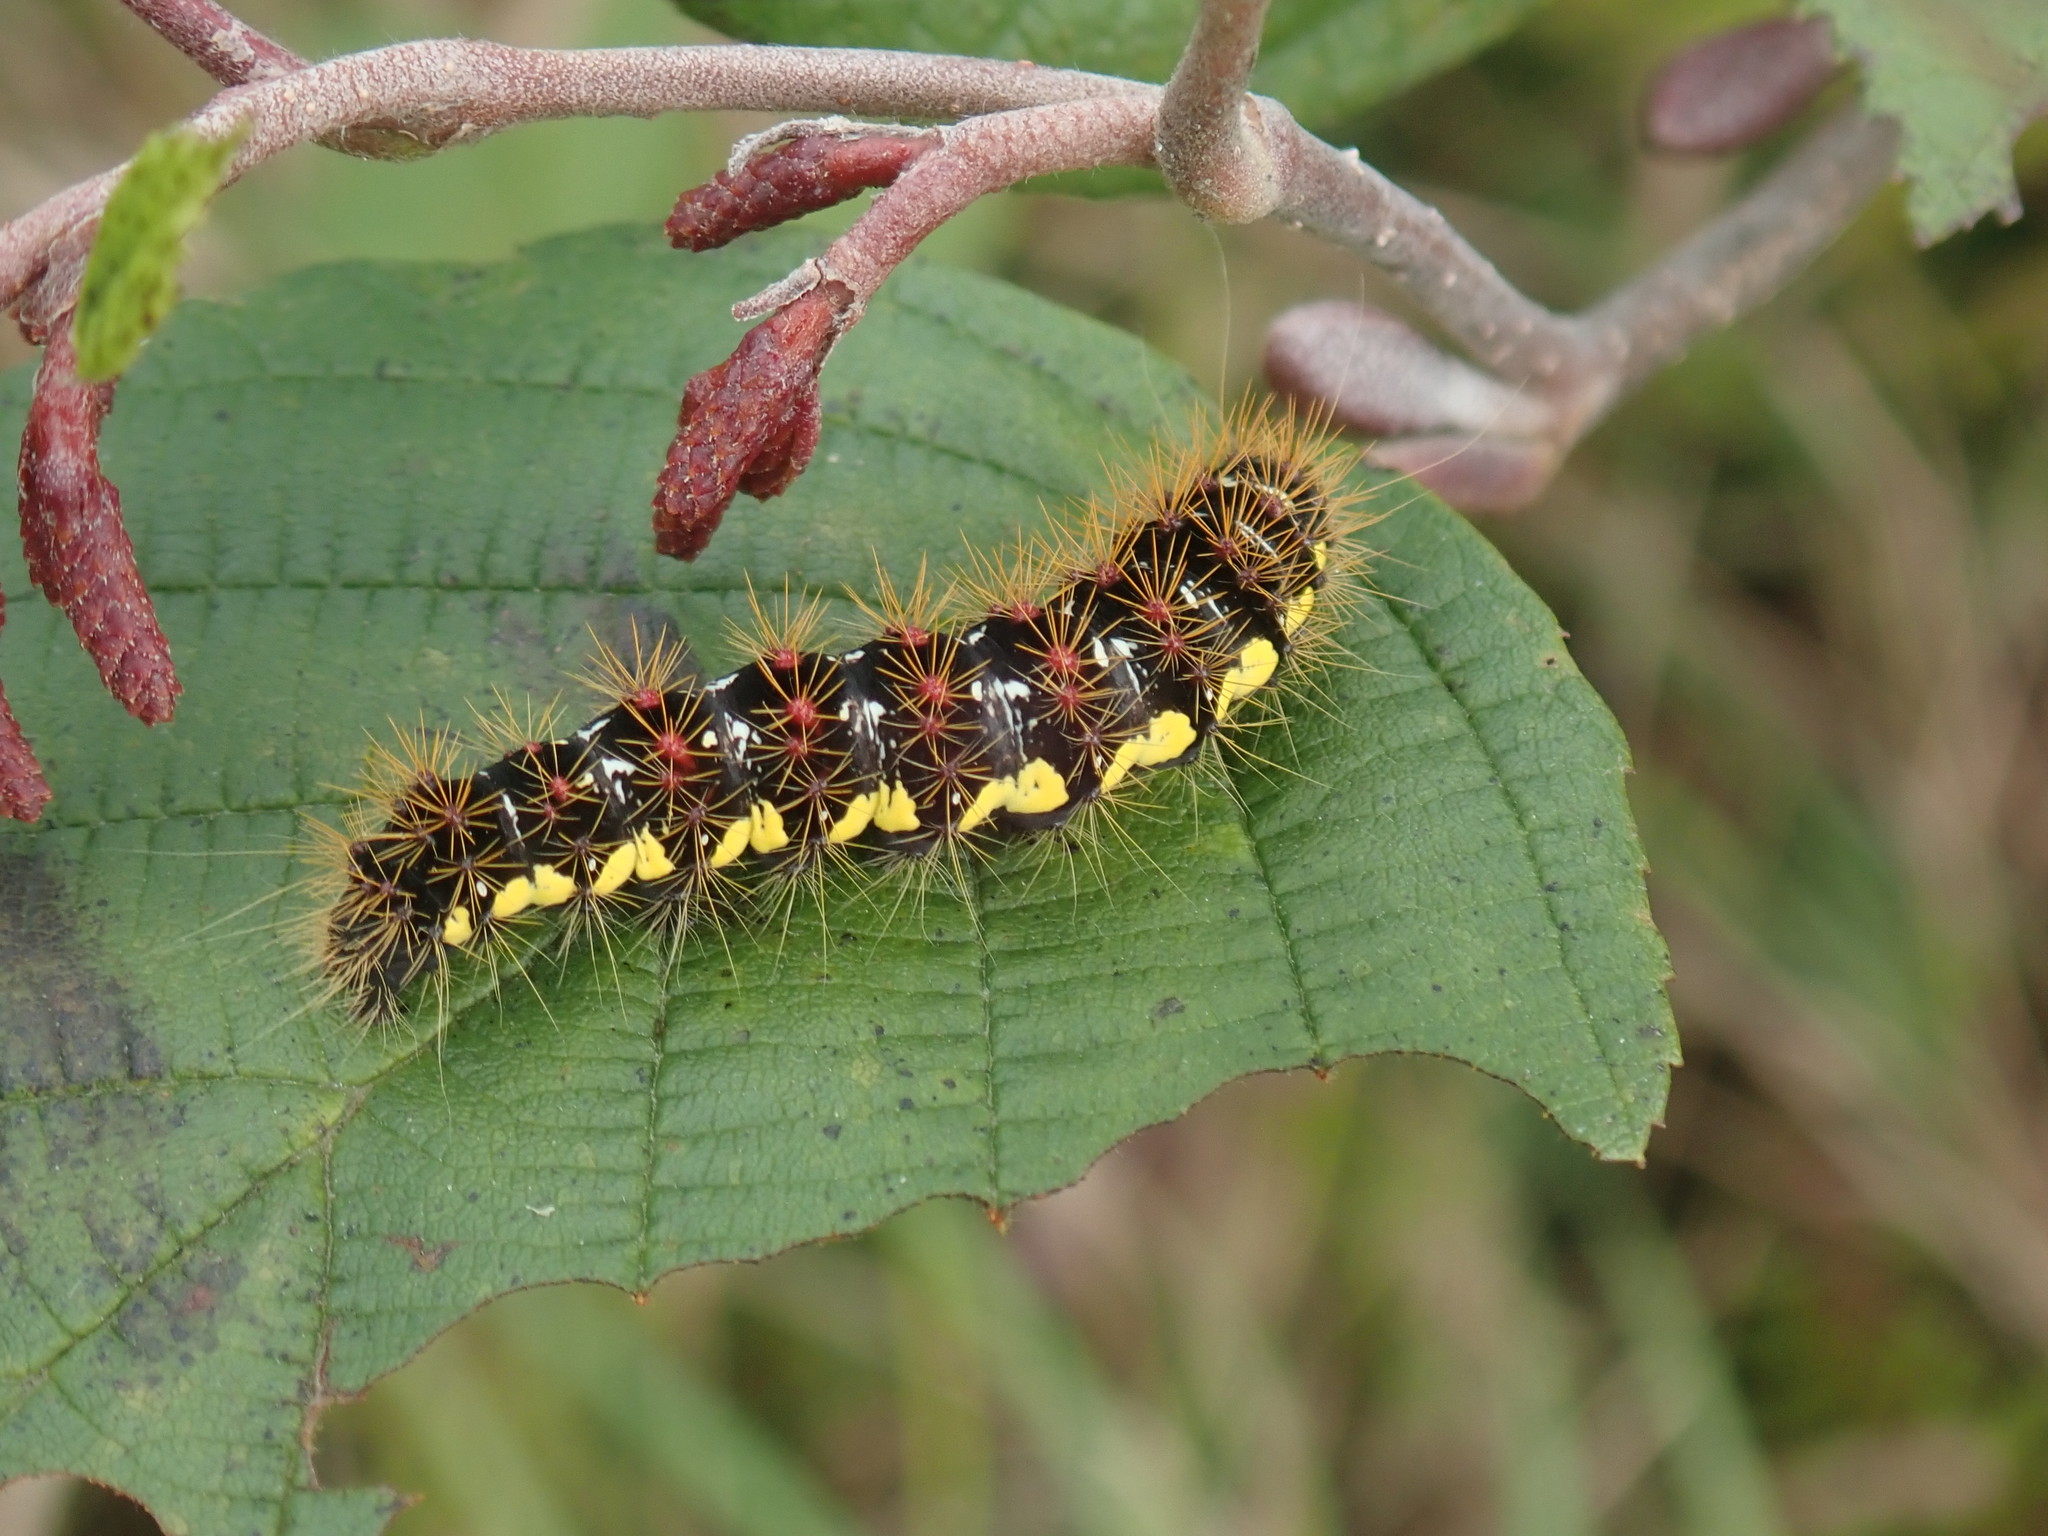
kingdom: Animalia
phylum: Arthropoda
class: Insecta
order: Lepidoptera
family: Noctuidae
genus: Acronicta
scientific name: Acronicta oblinita
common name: Smeared dagger
